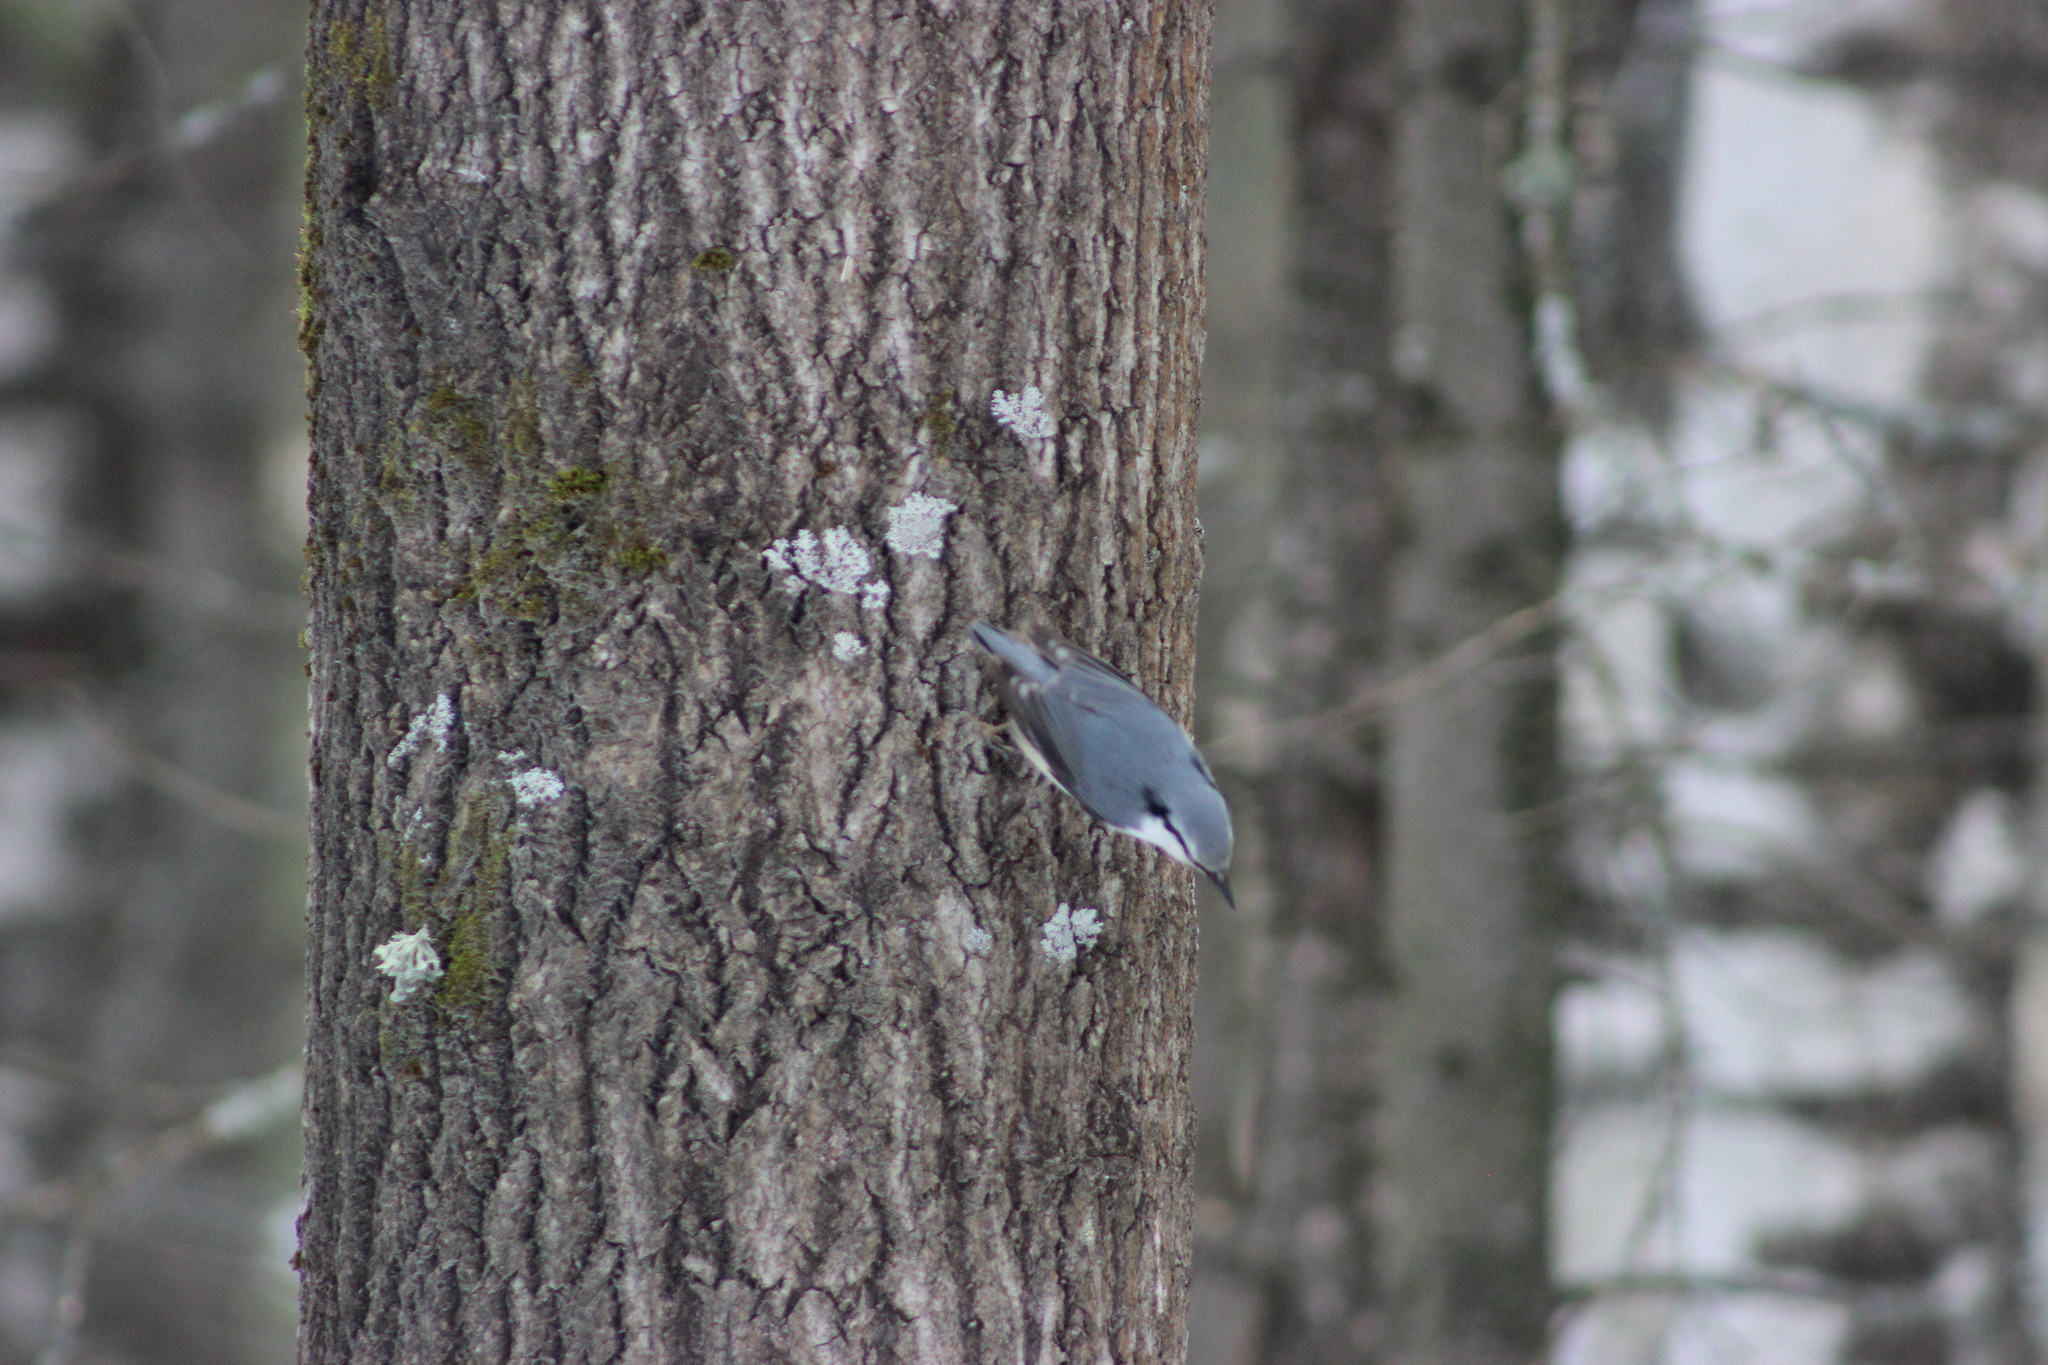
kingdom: Animalia
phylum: Chordata
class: Aves
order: Passeriformes
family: Sittidae
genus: Sitta
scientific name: Sitta europaea
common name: Eurasian nuthatch
